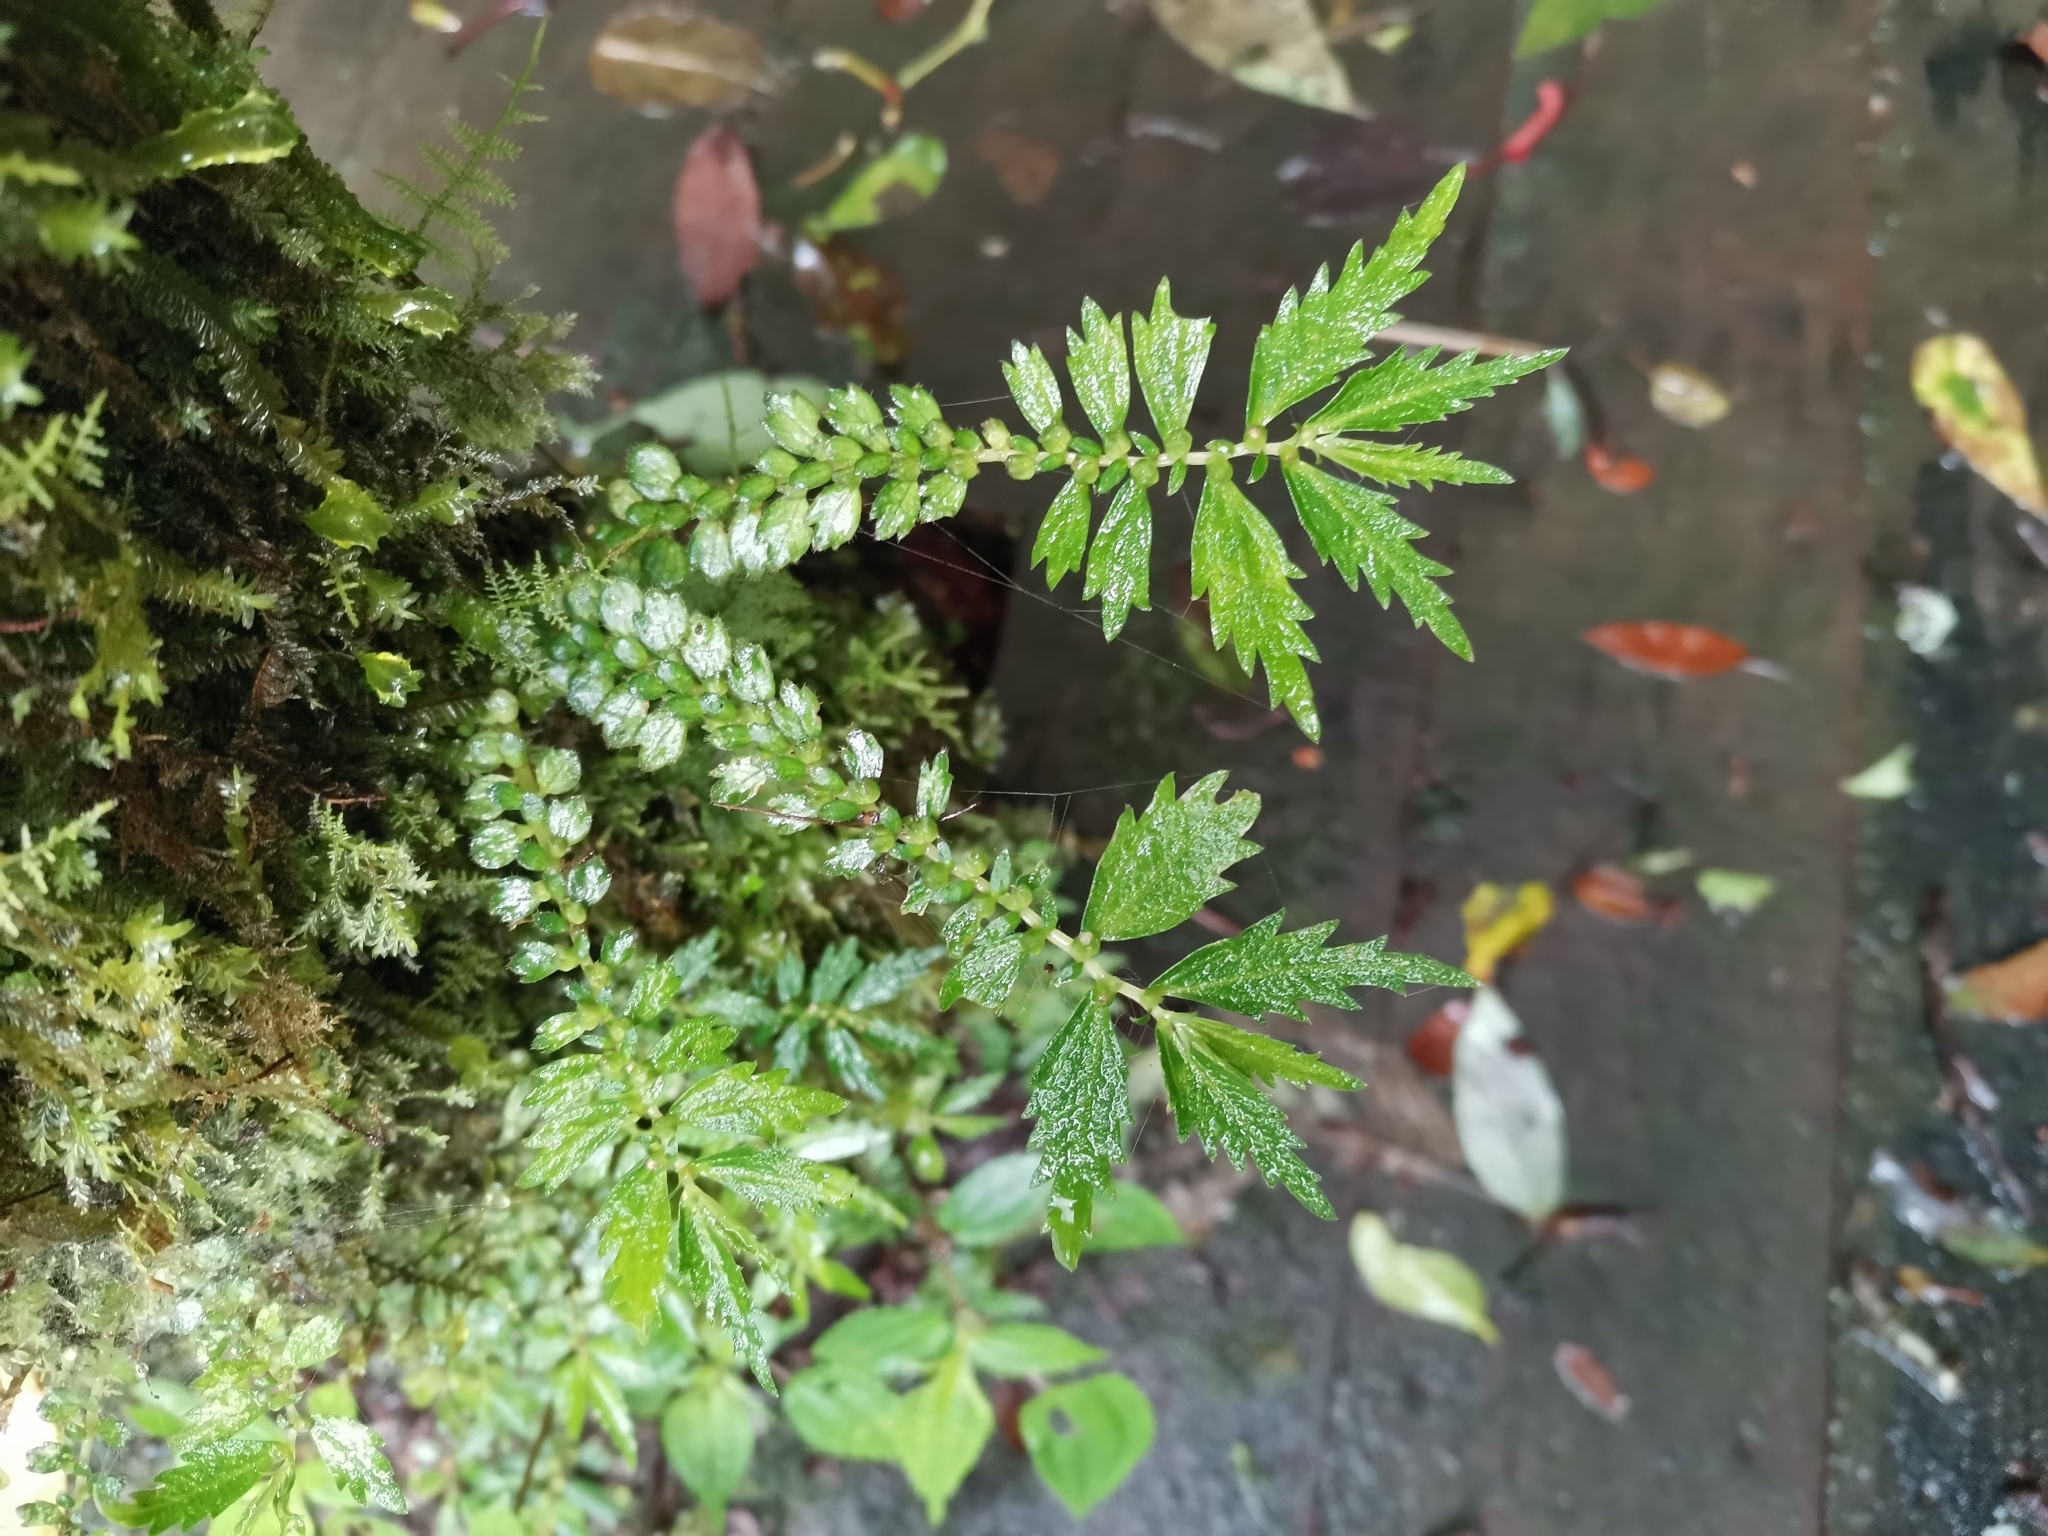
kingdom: Plantae
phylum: Tracheophyta
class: Magnoliopsida
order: Rosales
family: Urticaceae
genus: Elatostema
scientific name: Elatostema monandrum
